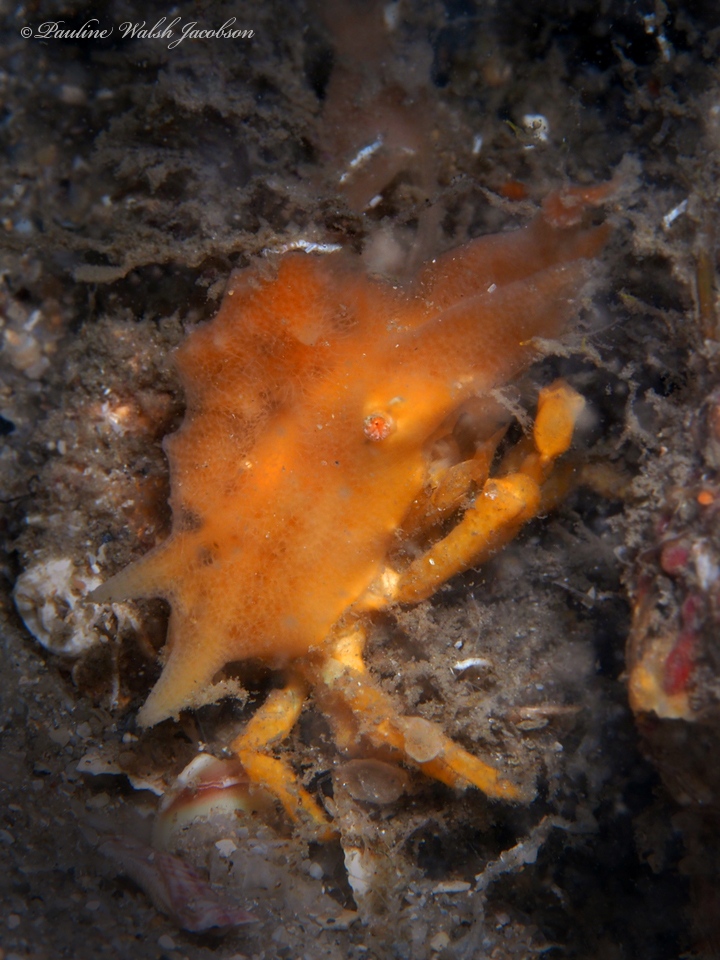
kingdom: Animalia
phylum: Arthropoda
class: Malacostraca
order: Decapoda
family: Epialtidae
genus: Macrocoeloma
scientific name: Macrocoeloma trispinosum
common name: Grass crab
